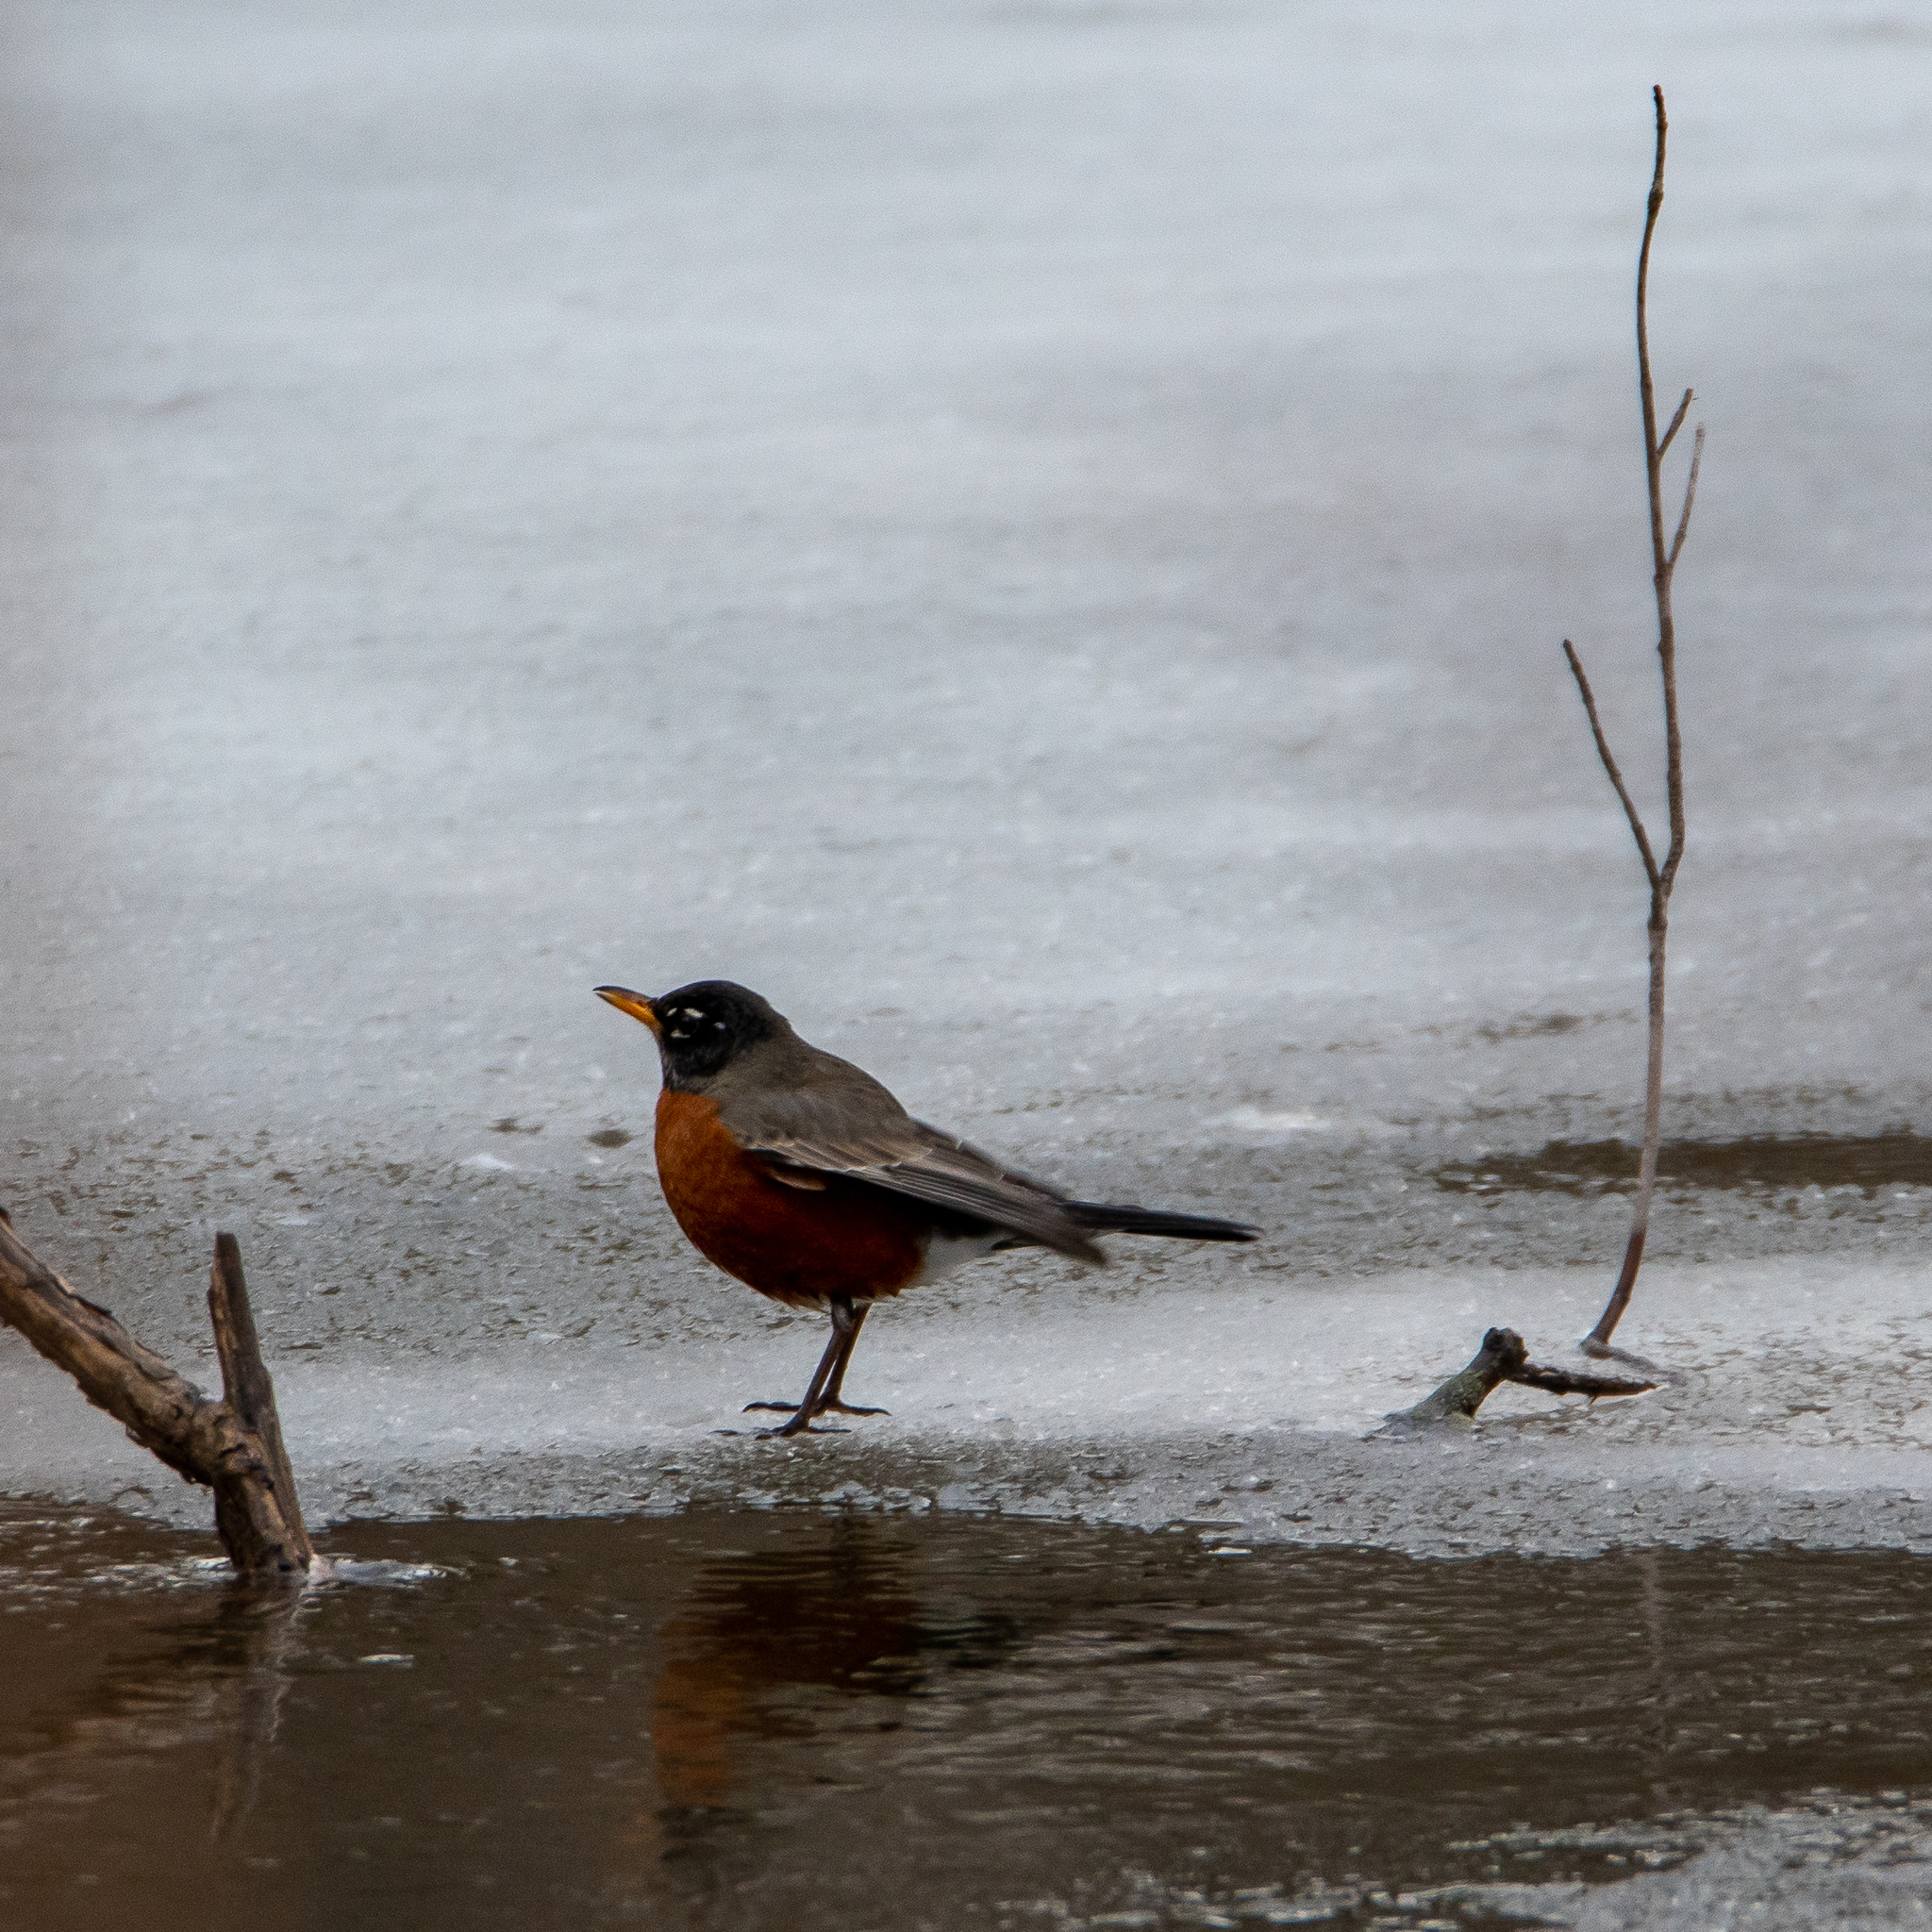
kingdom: Animalia
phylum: Chordata
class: Aves
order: Passeriformes
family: Turdidae
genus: Turdus
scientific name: Turdus migratorius
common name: American robin
